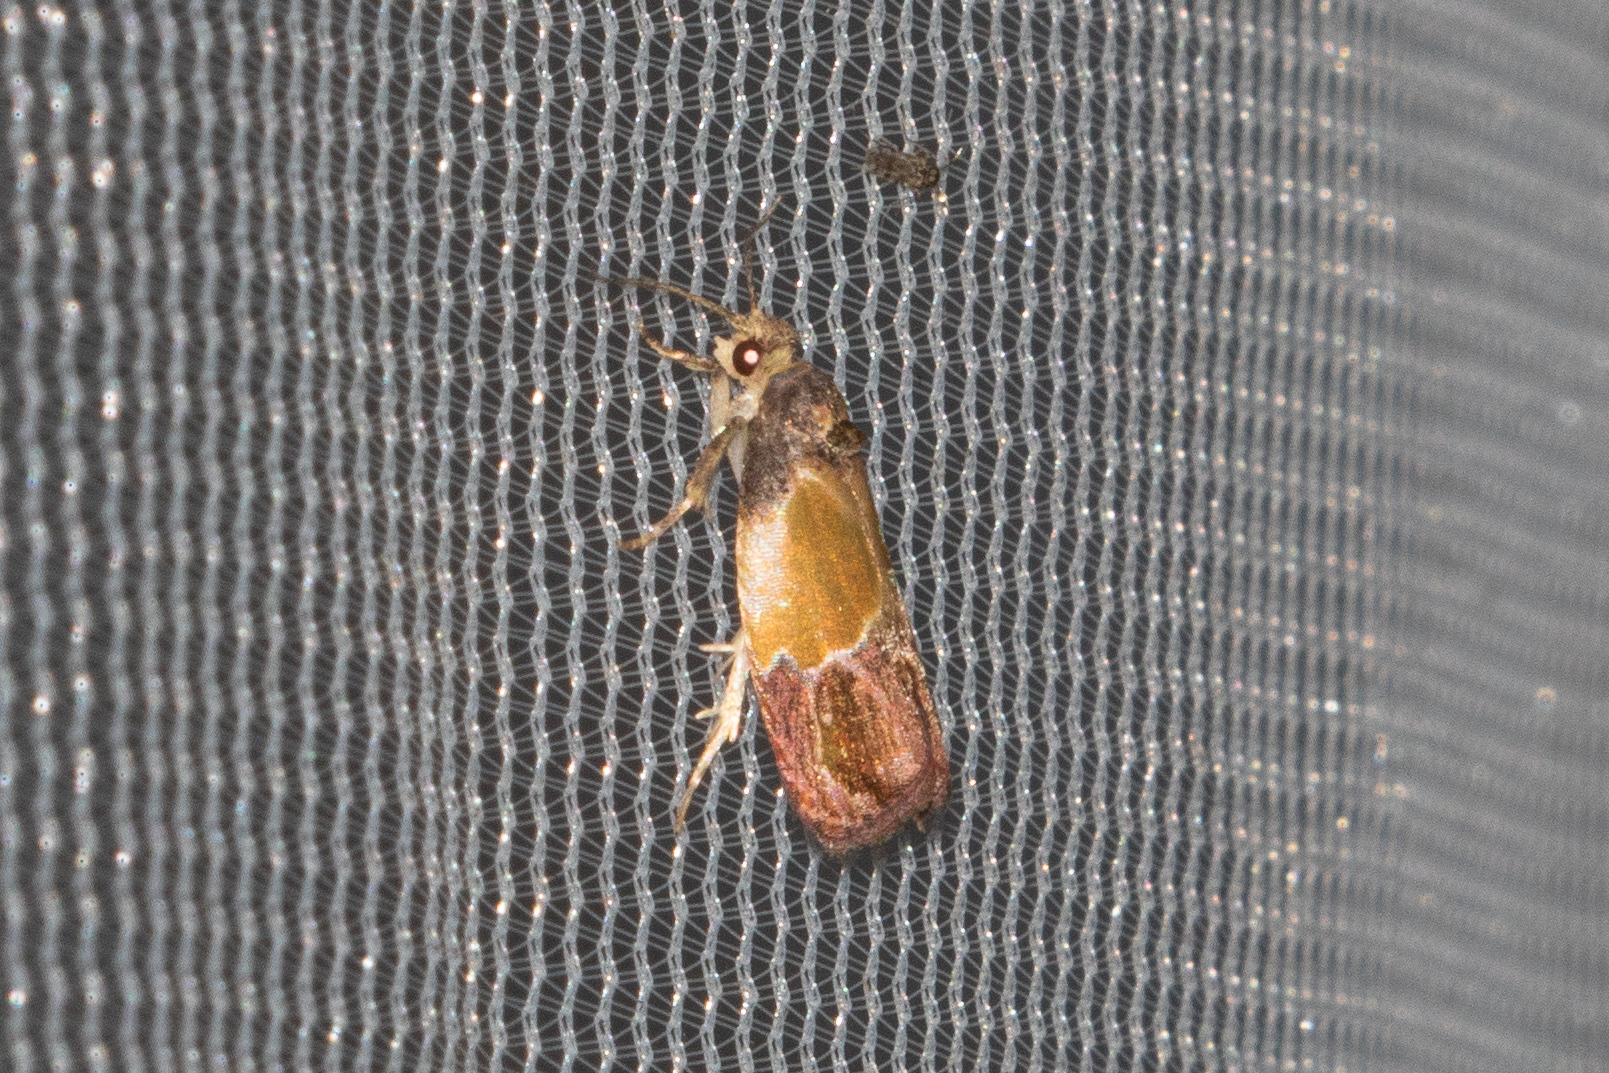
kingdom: Animalia
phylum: Arthropoda
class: Insecta
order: Lepidoptera
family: Tortricidae
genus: Eumarozia
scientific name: Eumarozia malachitana
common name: Sculptured moth
